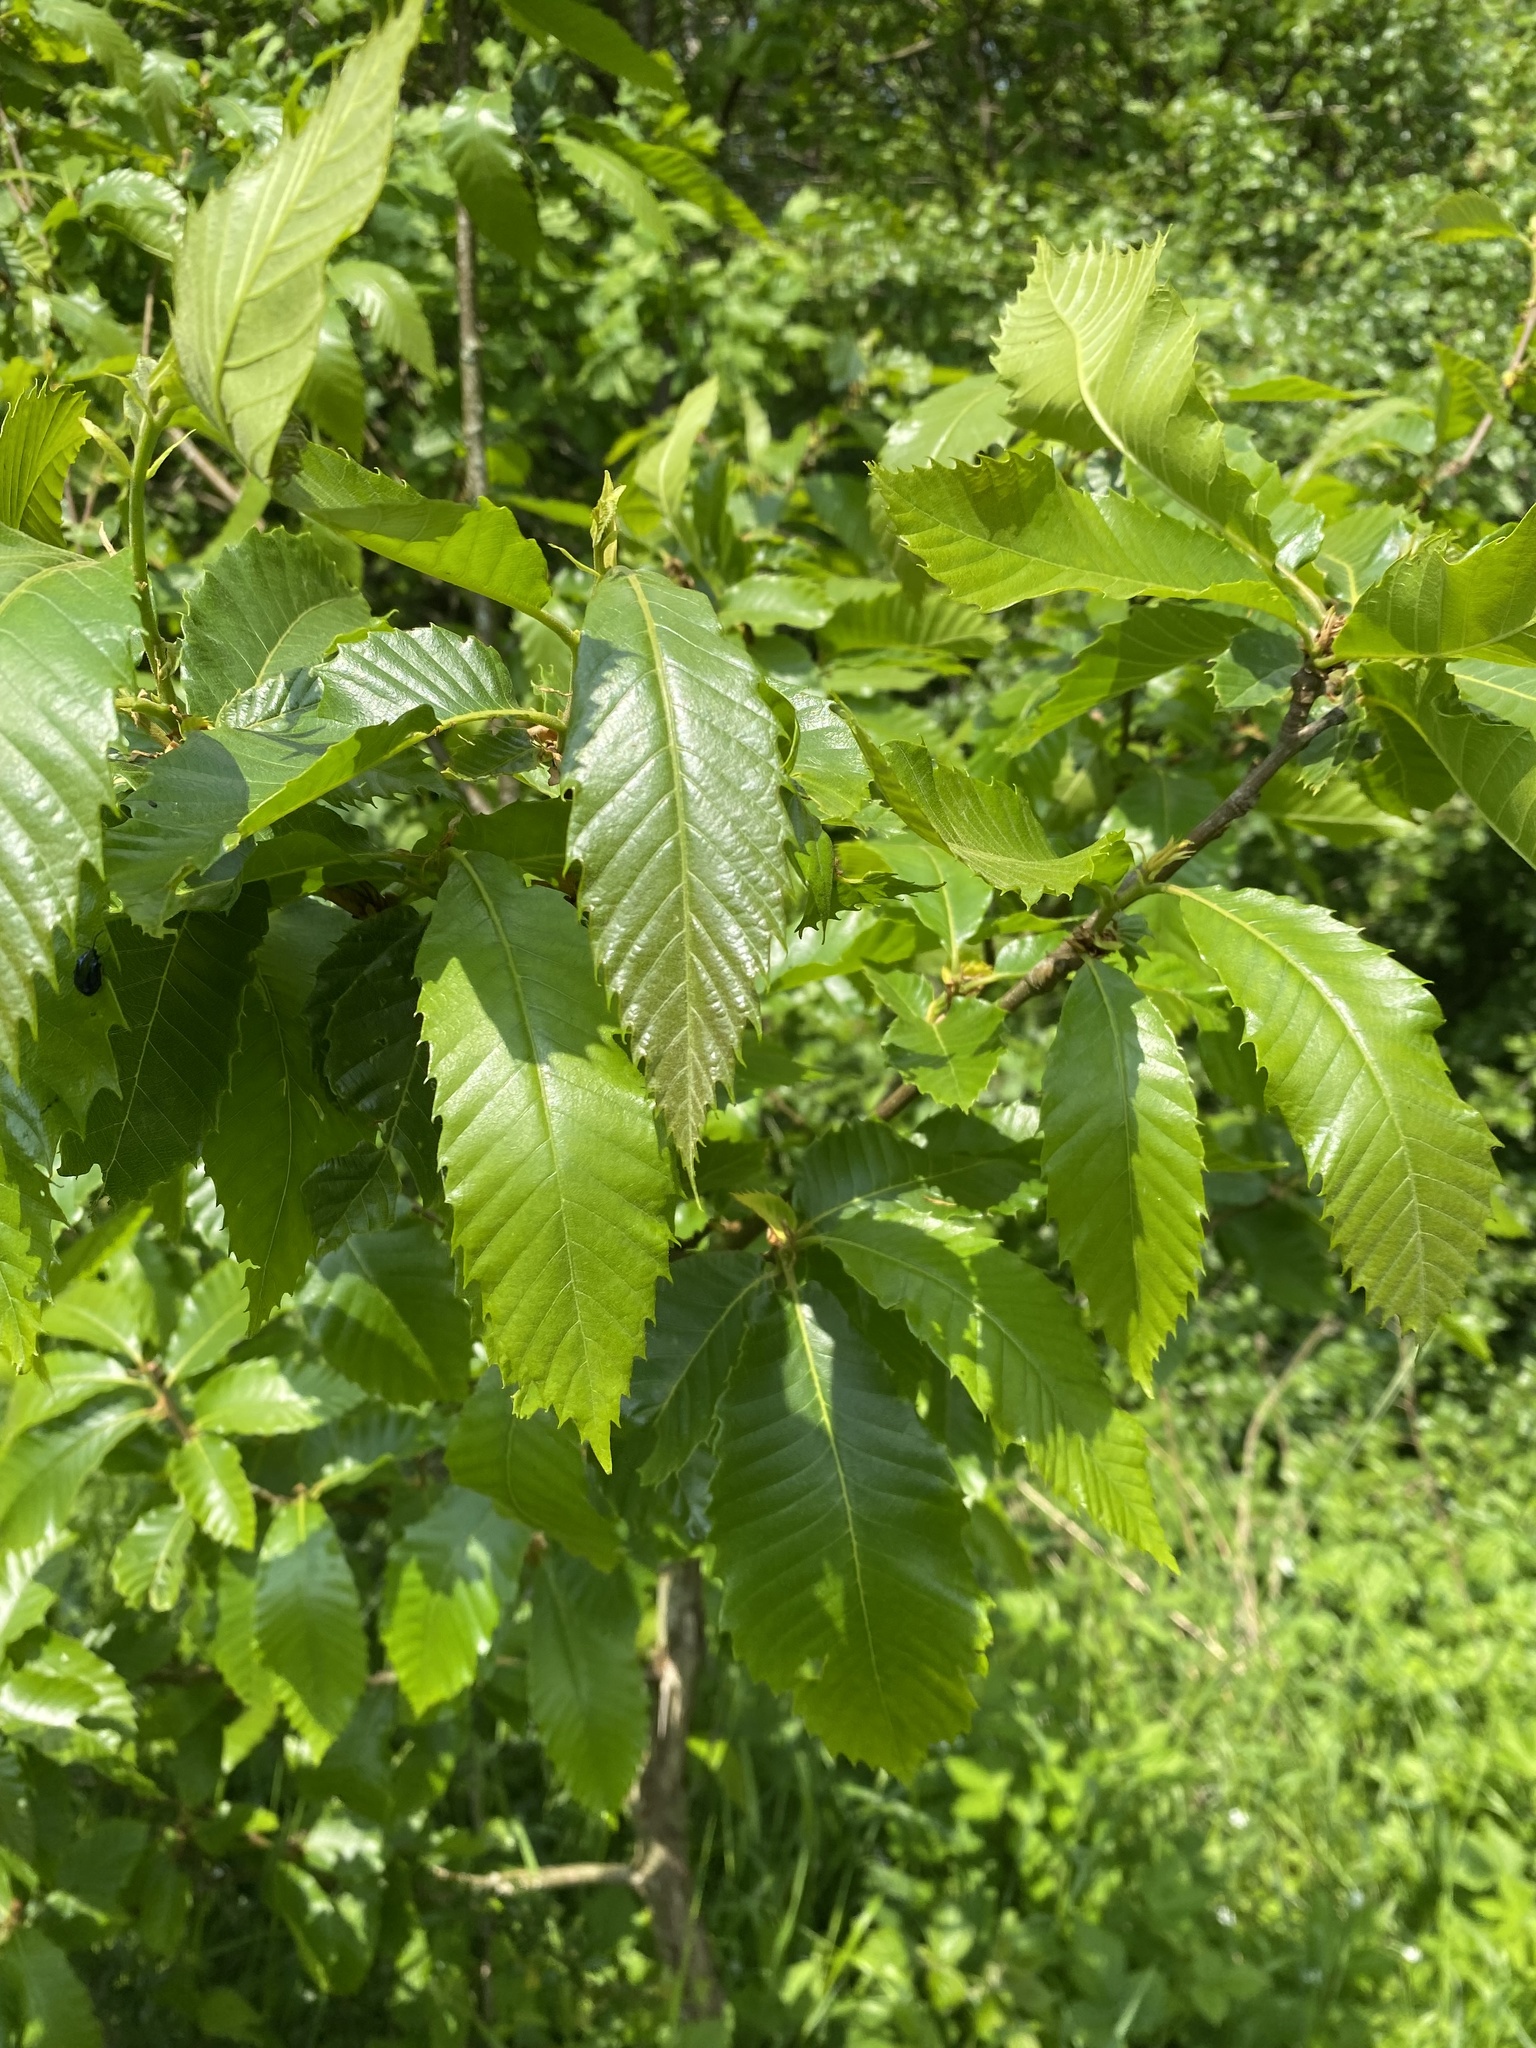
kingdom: Plantae
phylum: Tracheophyta
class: Magnoliopsida
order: Fagales
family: Fagaceae
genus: Castanea
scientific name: Castanea sativa
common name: Sweet chestnut
